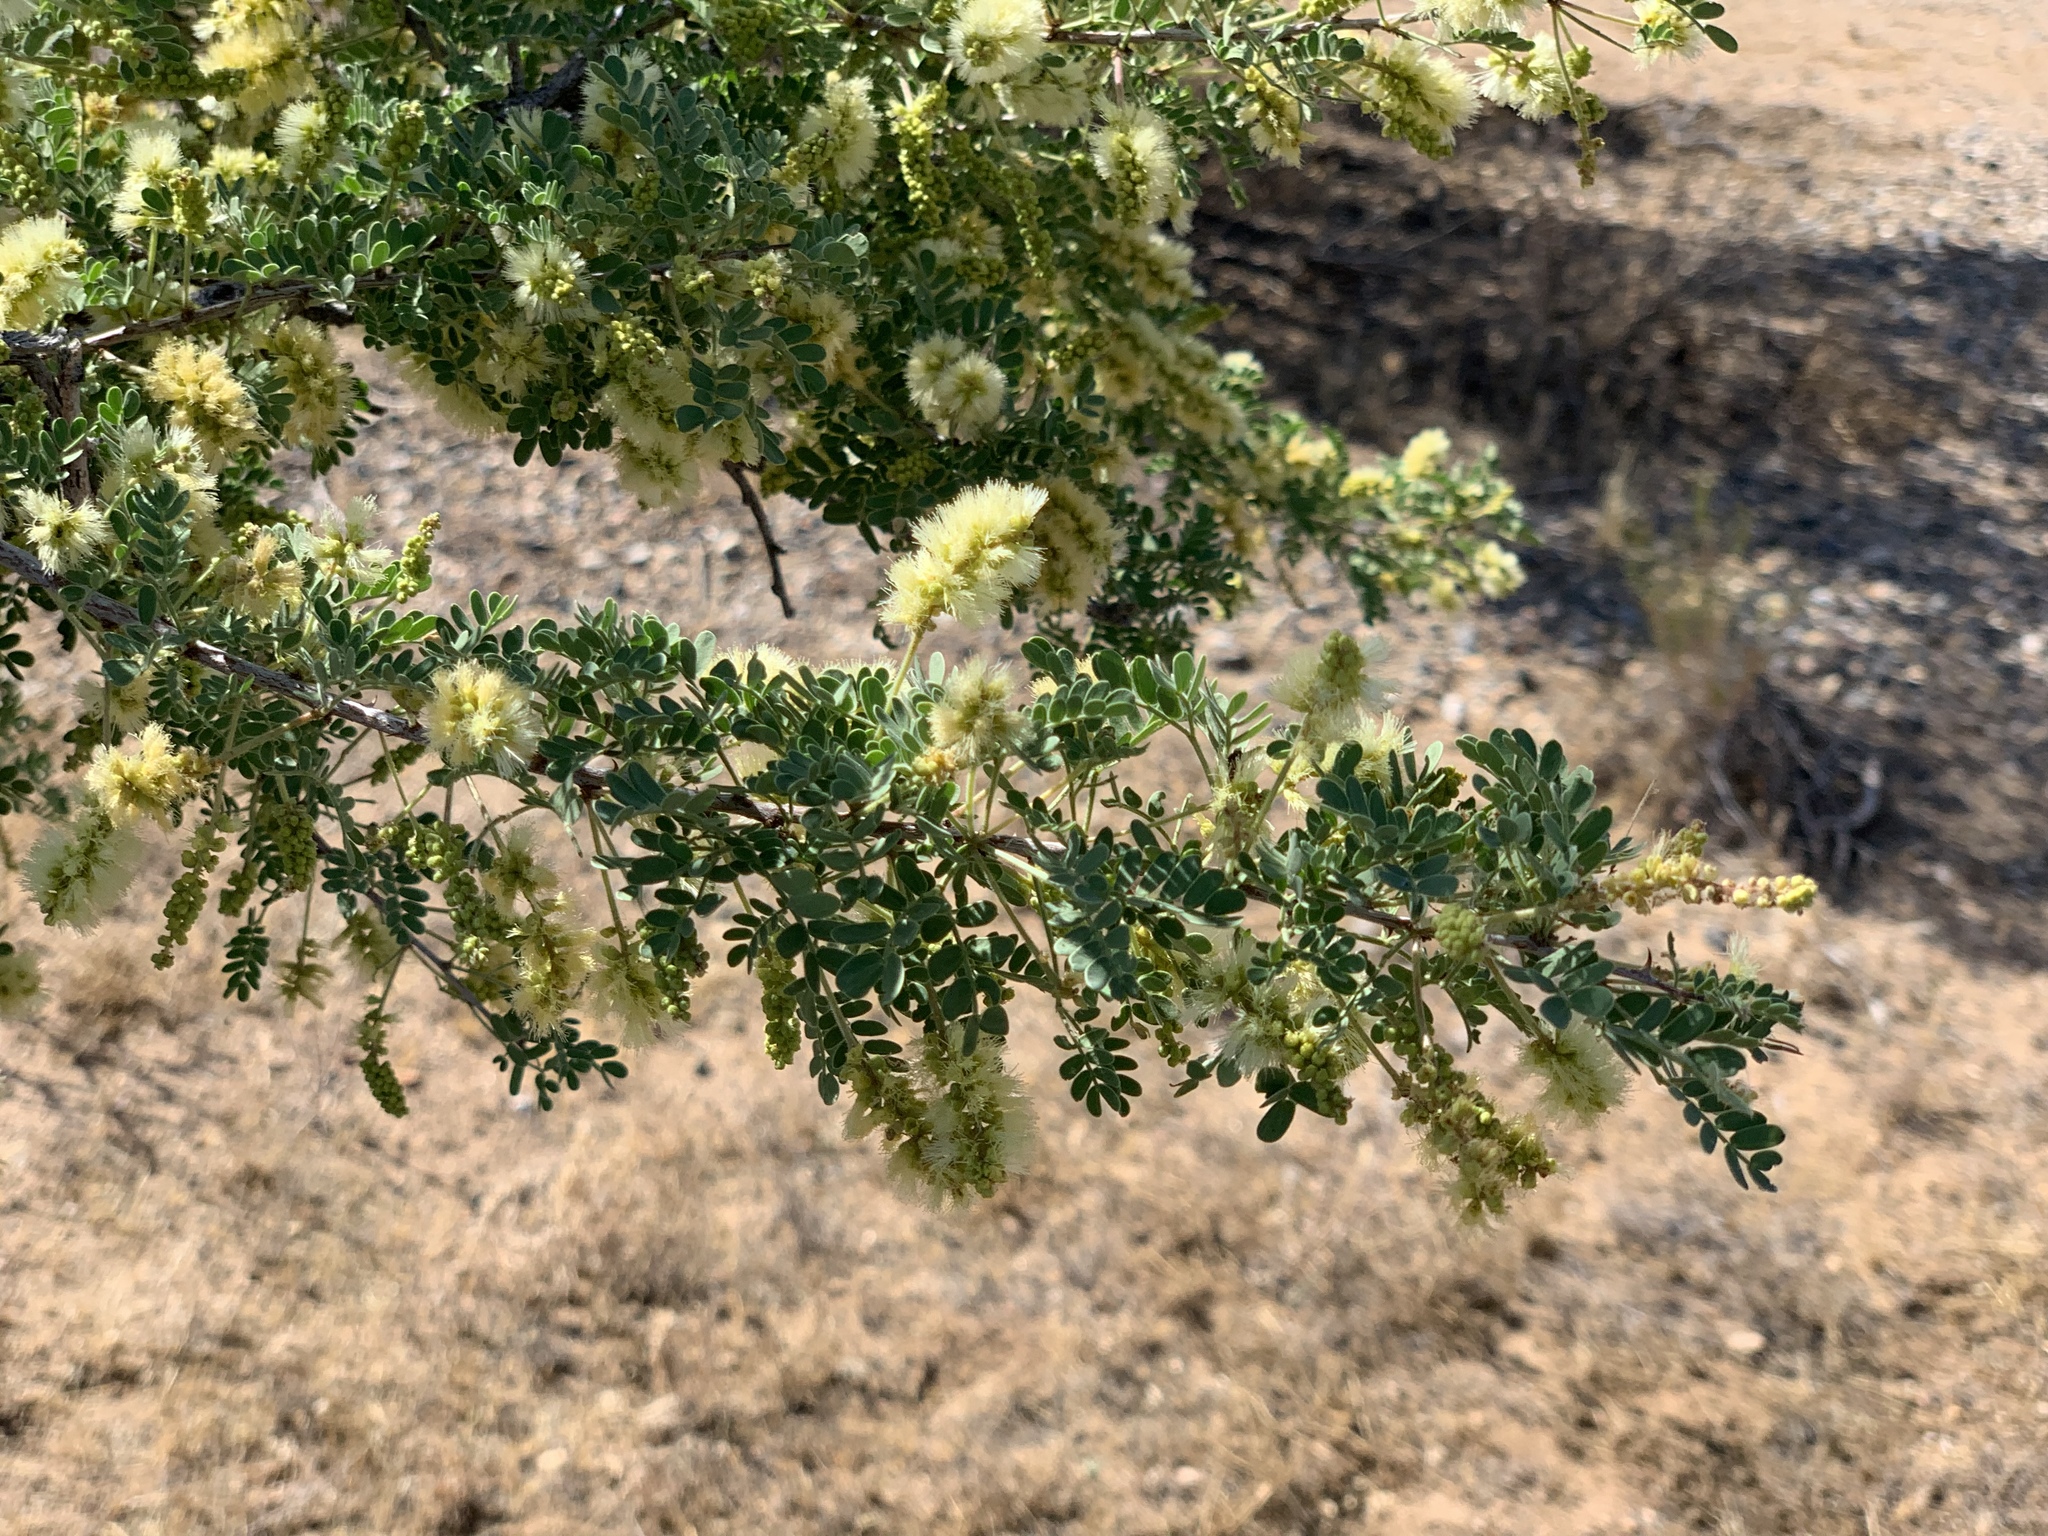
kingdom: Plantae
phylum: Tracheophyta
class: Magnoliopsida
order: Fabales
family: Fabaceae
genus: Senegalia
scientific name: Senegalia greggii
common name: Texas-mimosa
